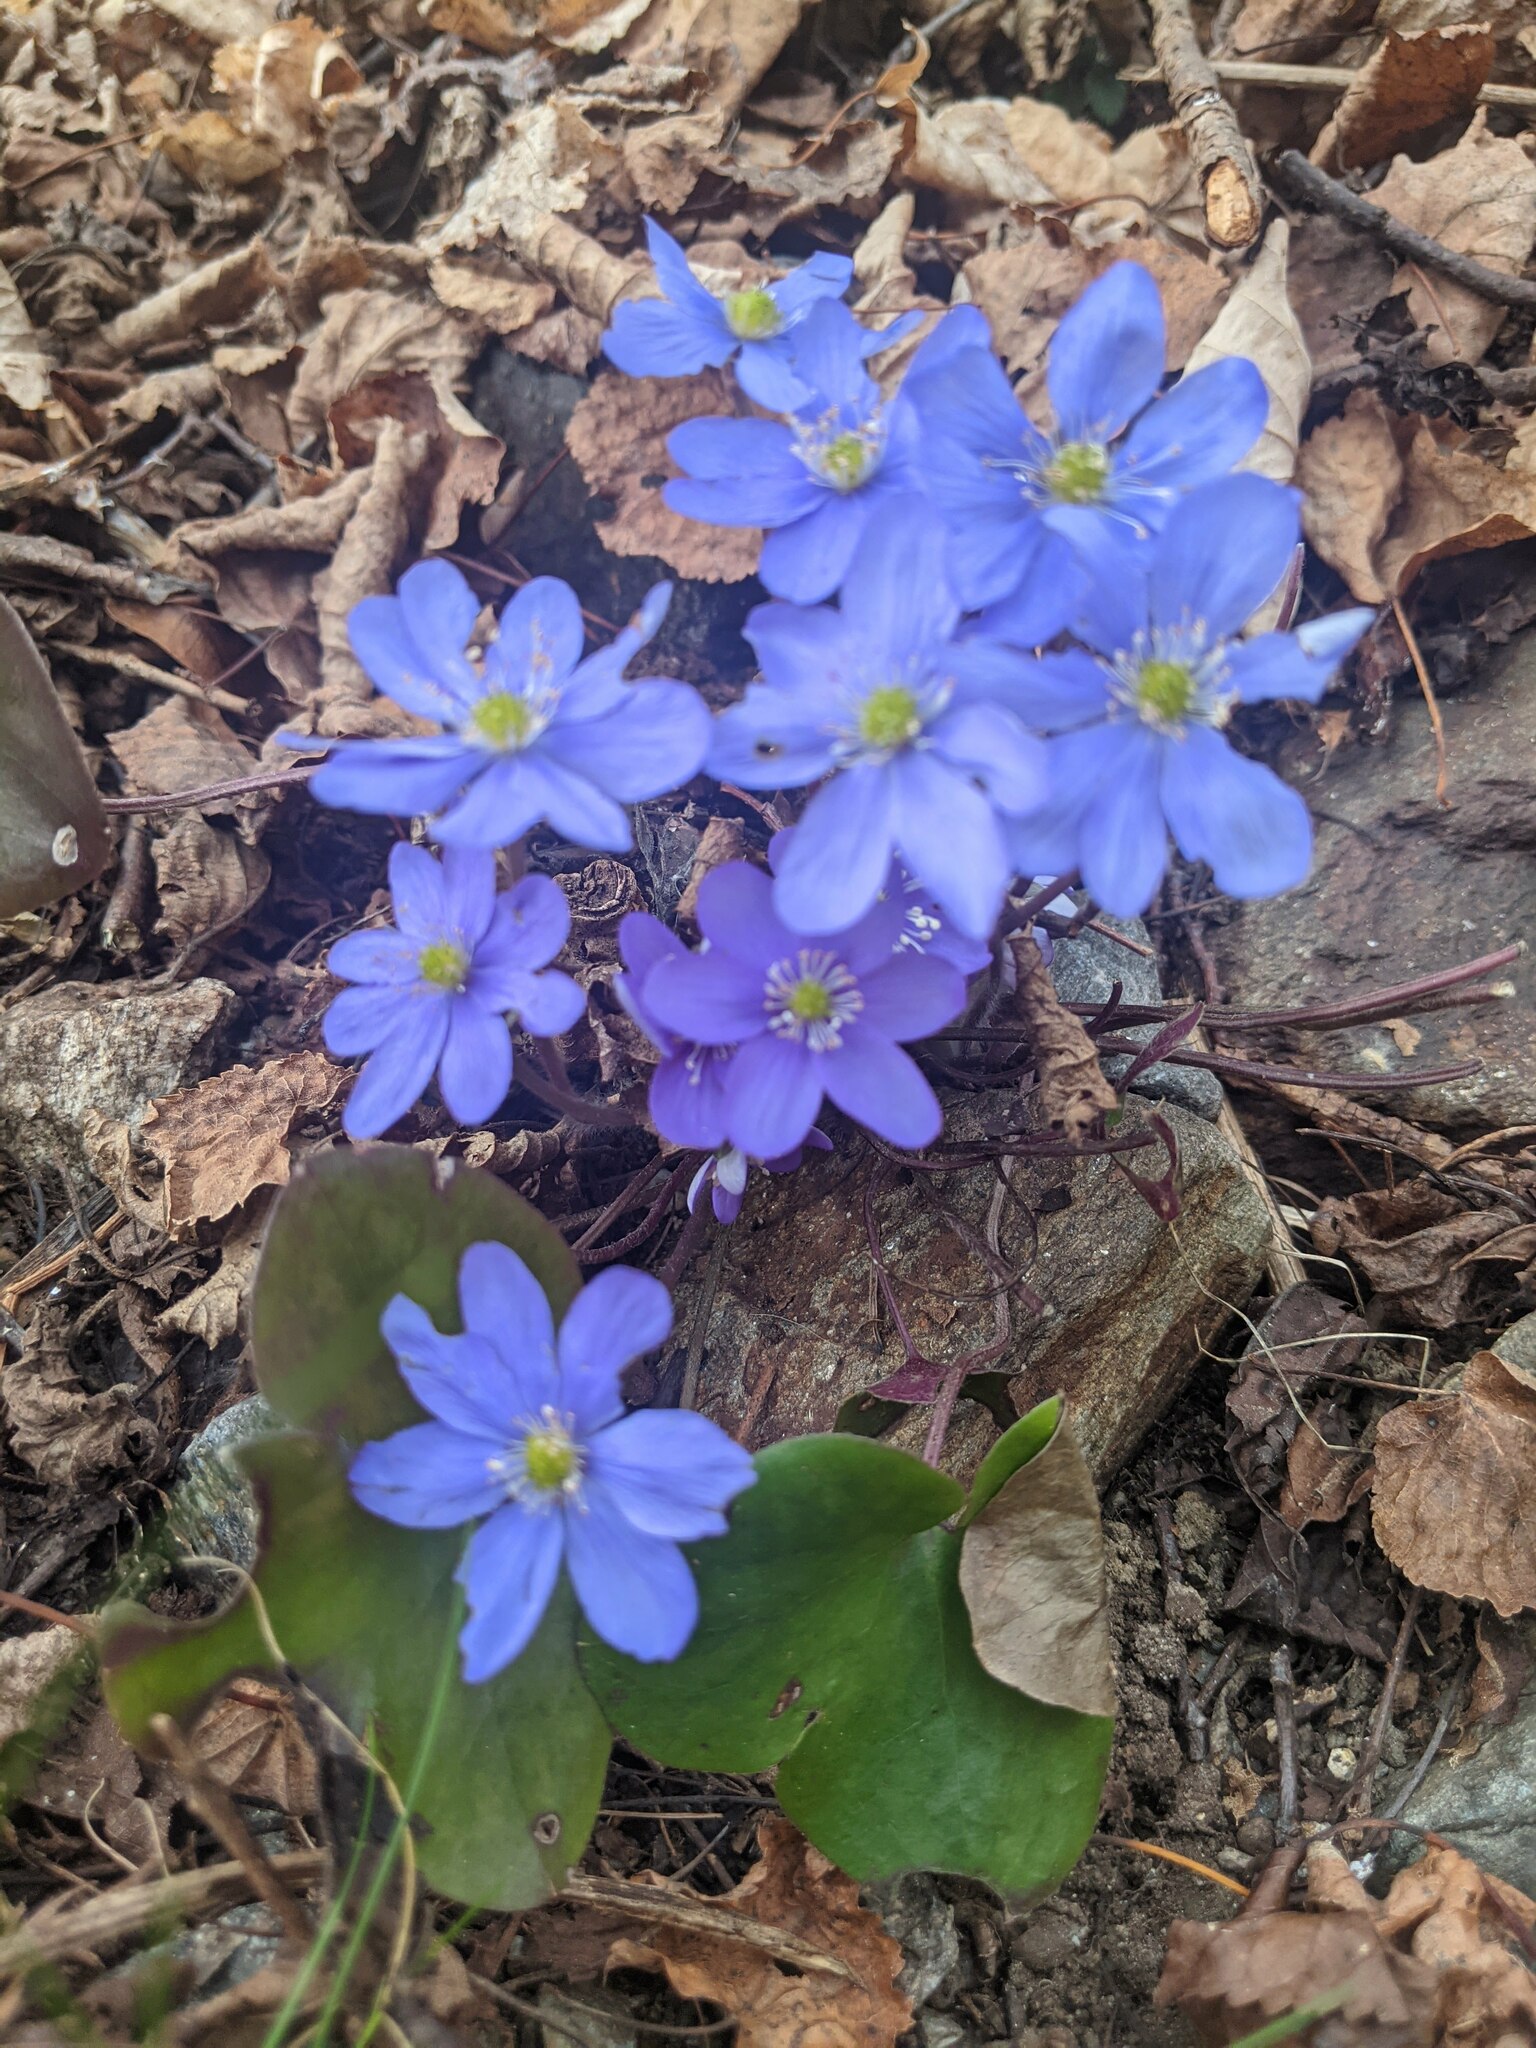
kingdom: Plantae
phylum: Tracheophyta
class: Magnoliopsida
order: Ranunculales
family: Ranunculaceae
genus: Hepatica
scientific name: Hepatica nobilis
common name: Liverleaf
